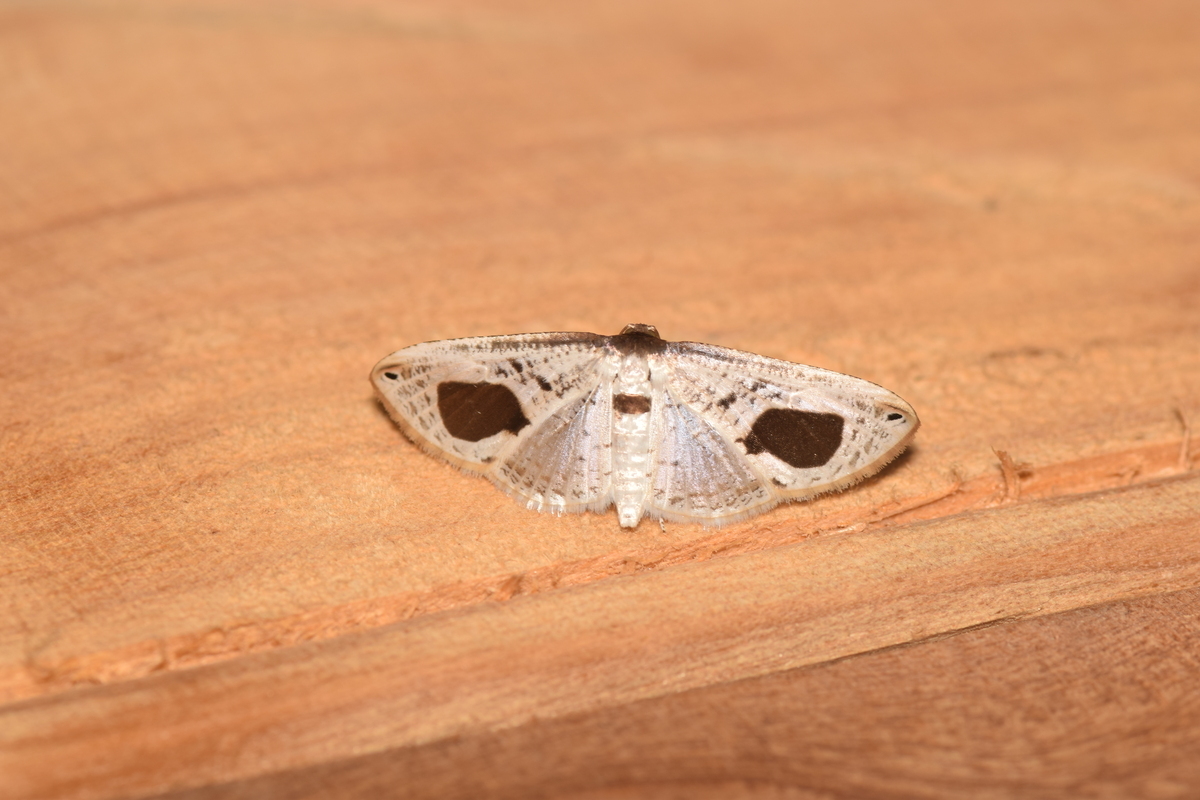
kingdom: Animalia
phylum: Arthropoda
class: Insecta
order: Lepidoptera
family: Thyrididae
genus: Calindoea
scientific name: Calindoea
